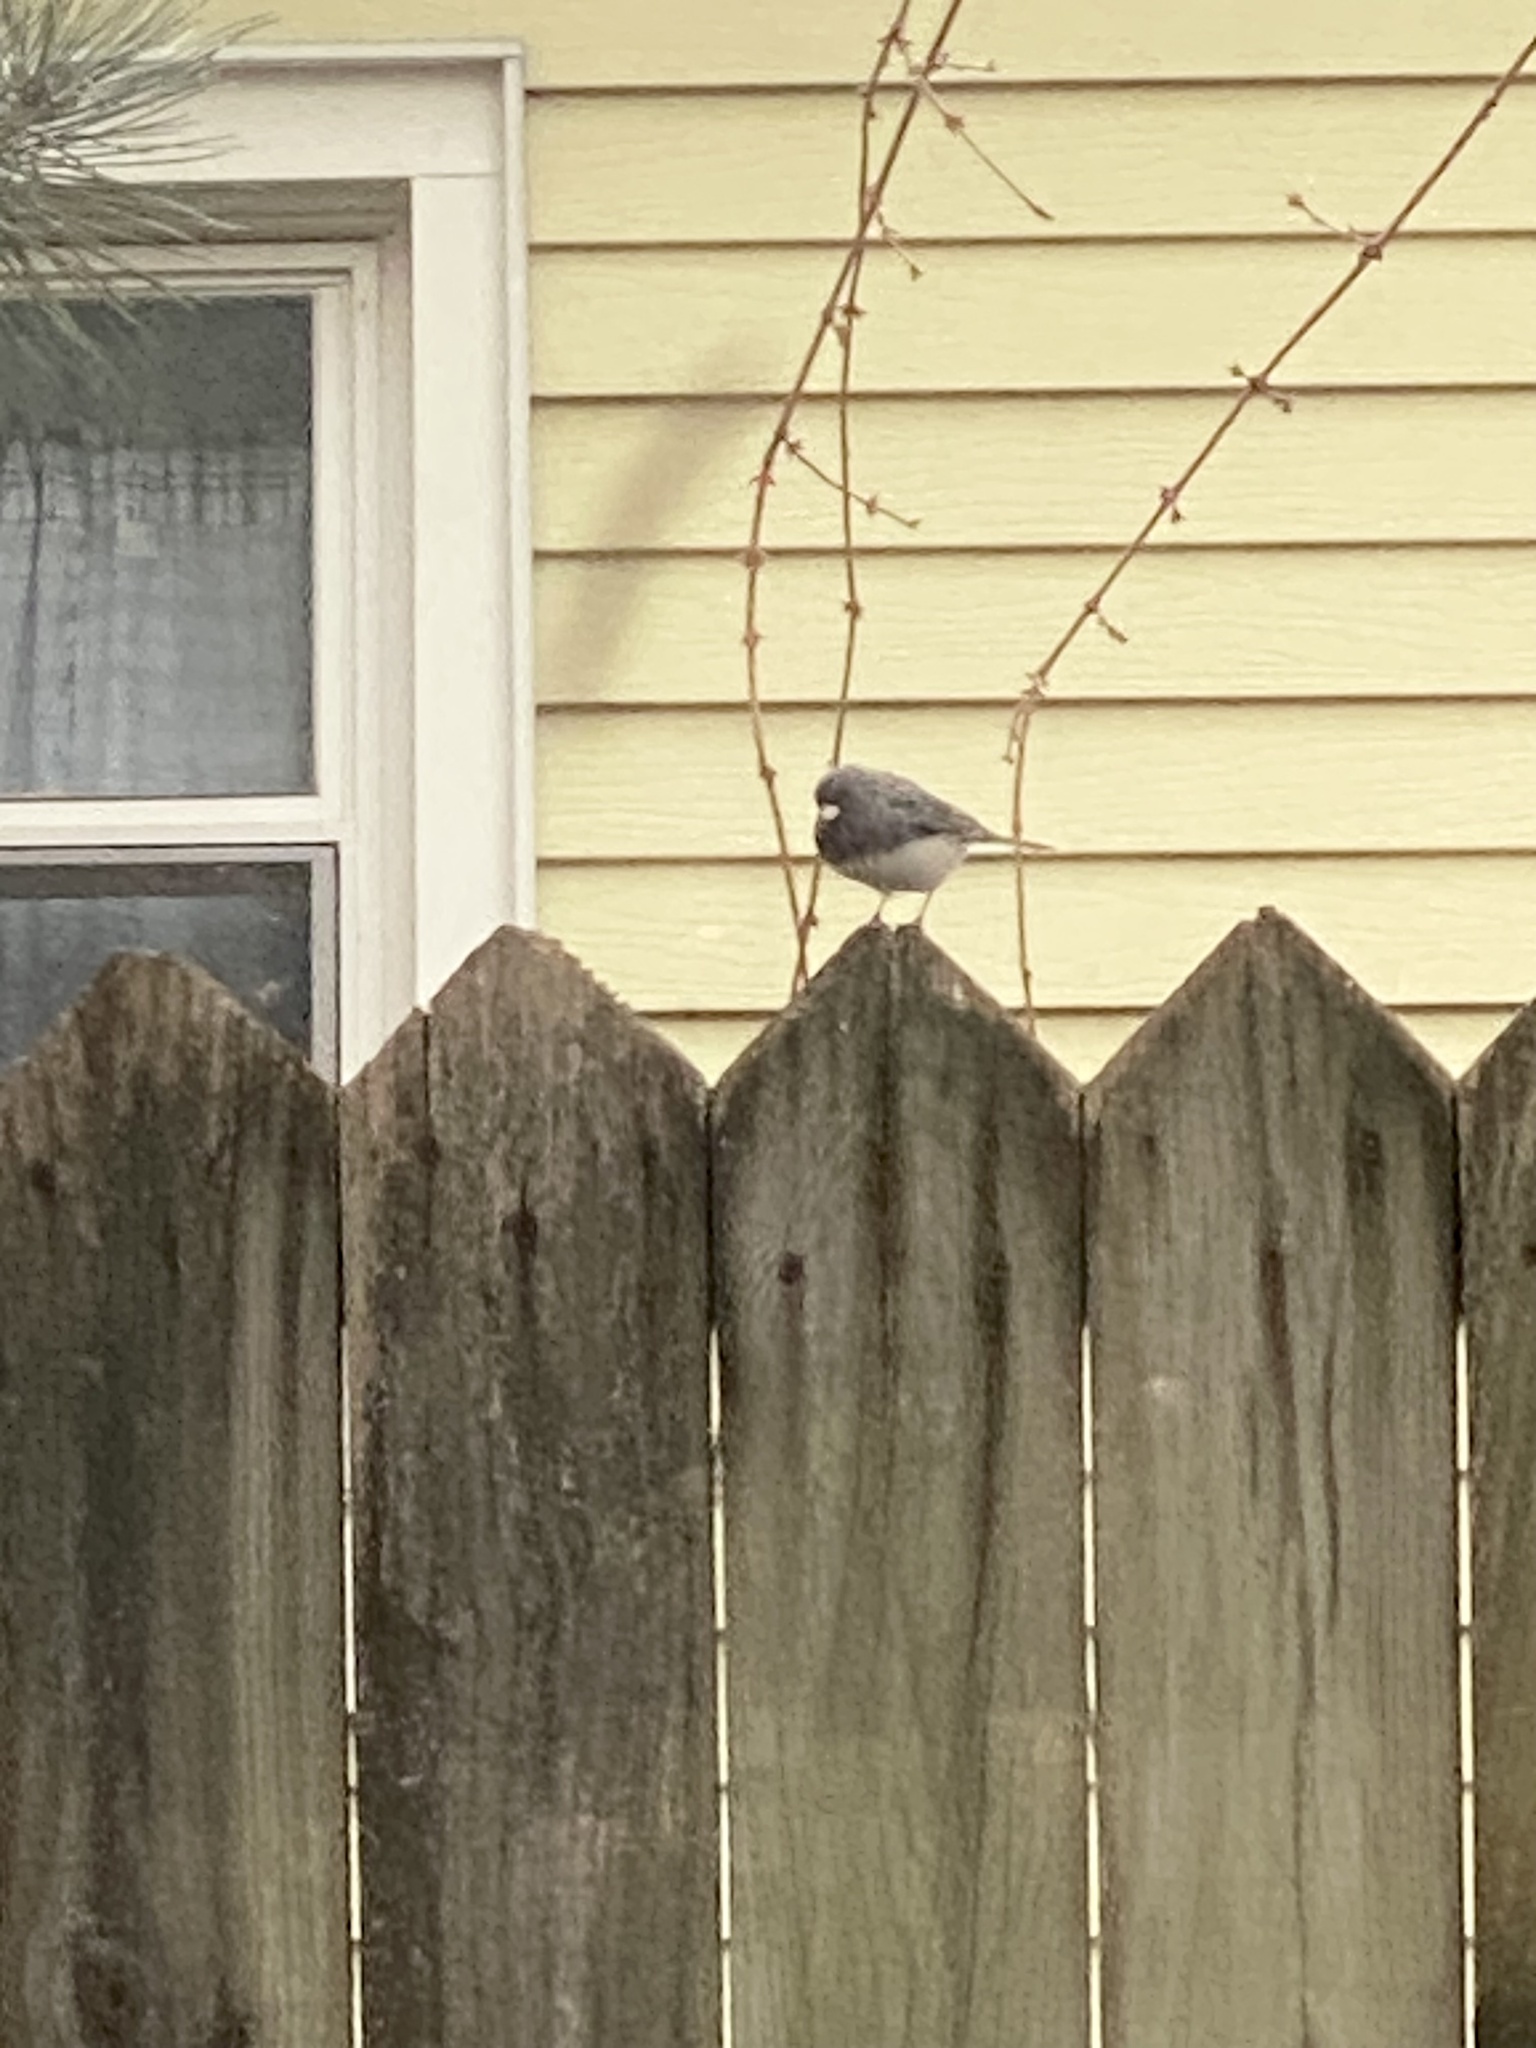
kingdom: Animalia
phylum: Chordata
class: Aves
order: Passeriformes
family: Passerellidae
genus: Junco
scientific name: Junco hyemalis
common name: Dark-eyed junco
